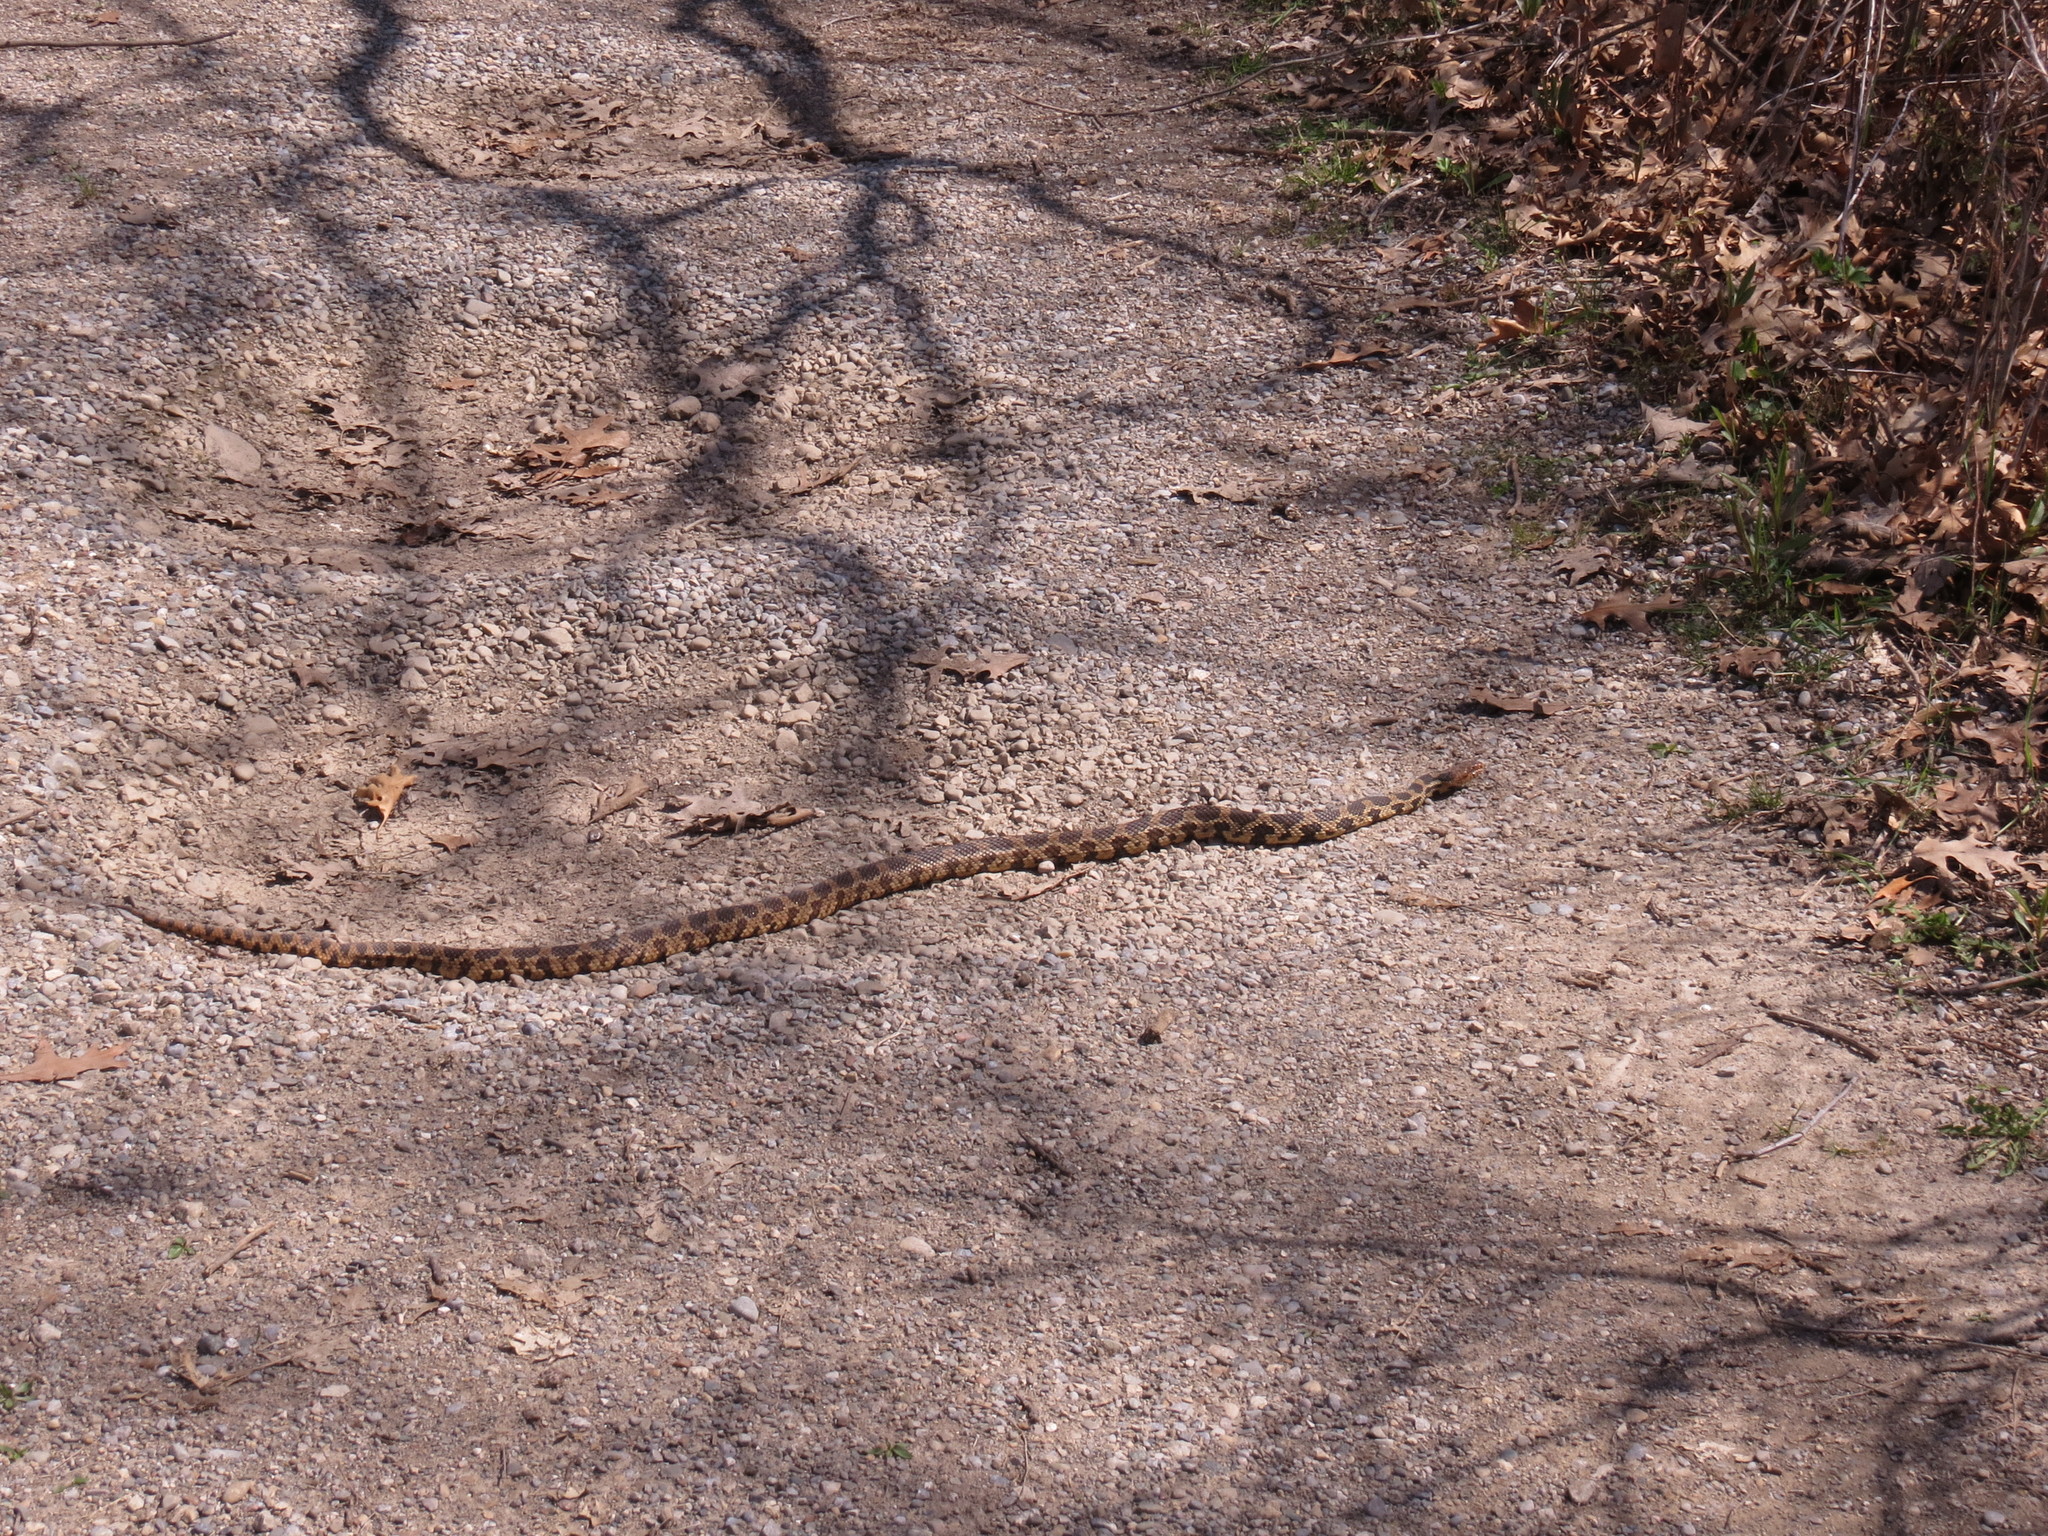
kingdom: Animalia
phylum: Chordata
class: Squamata
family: Colubridae
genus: Pantherophis
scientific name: Pantherophis vulpinus
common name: Eastern fox snake
